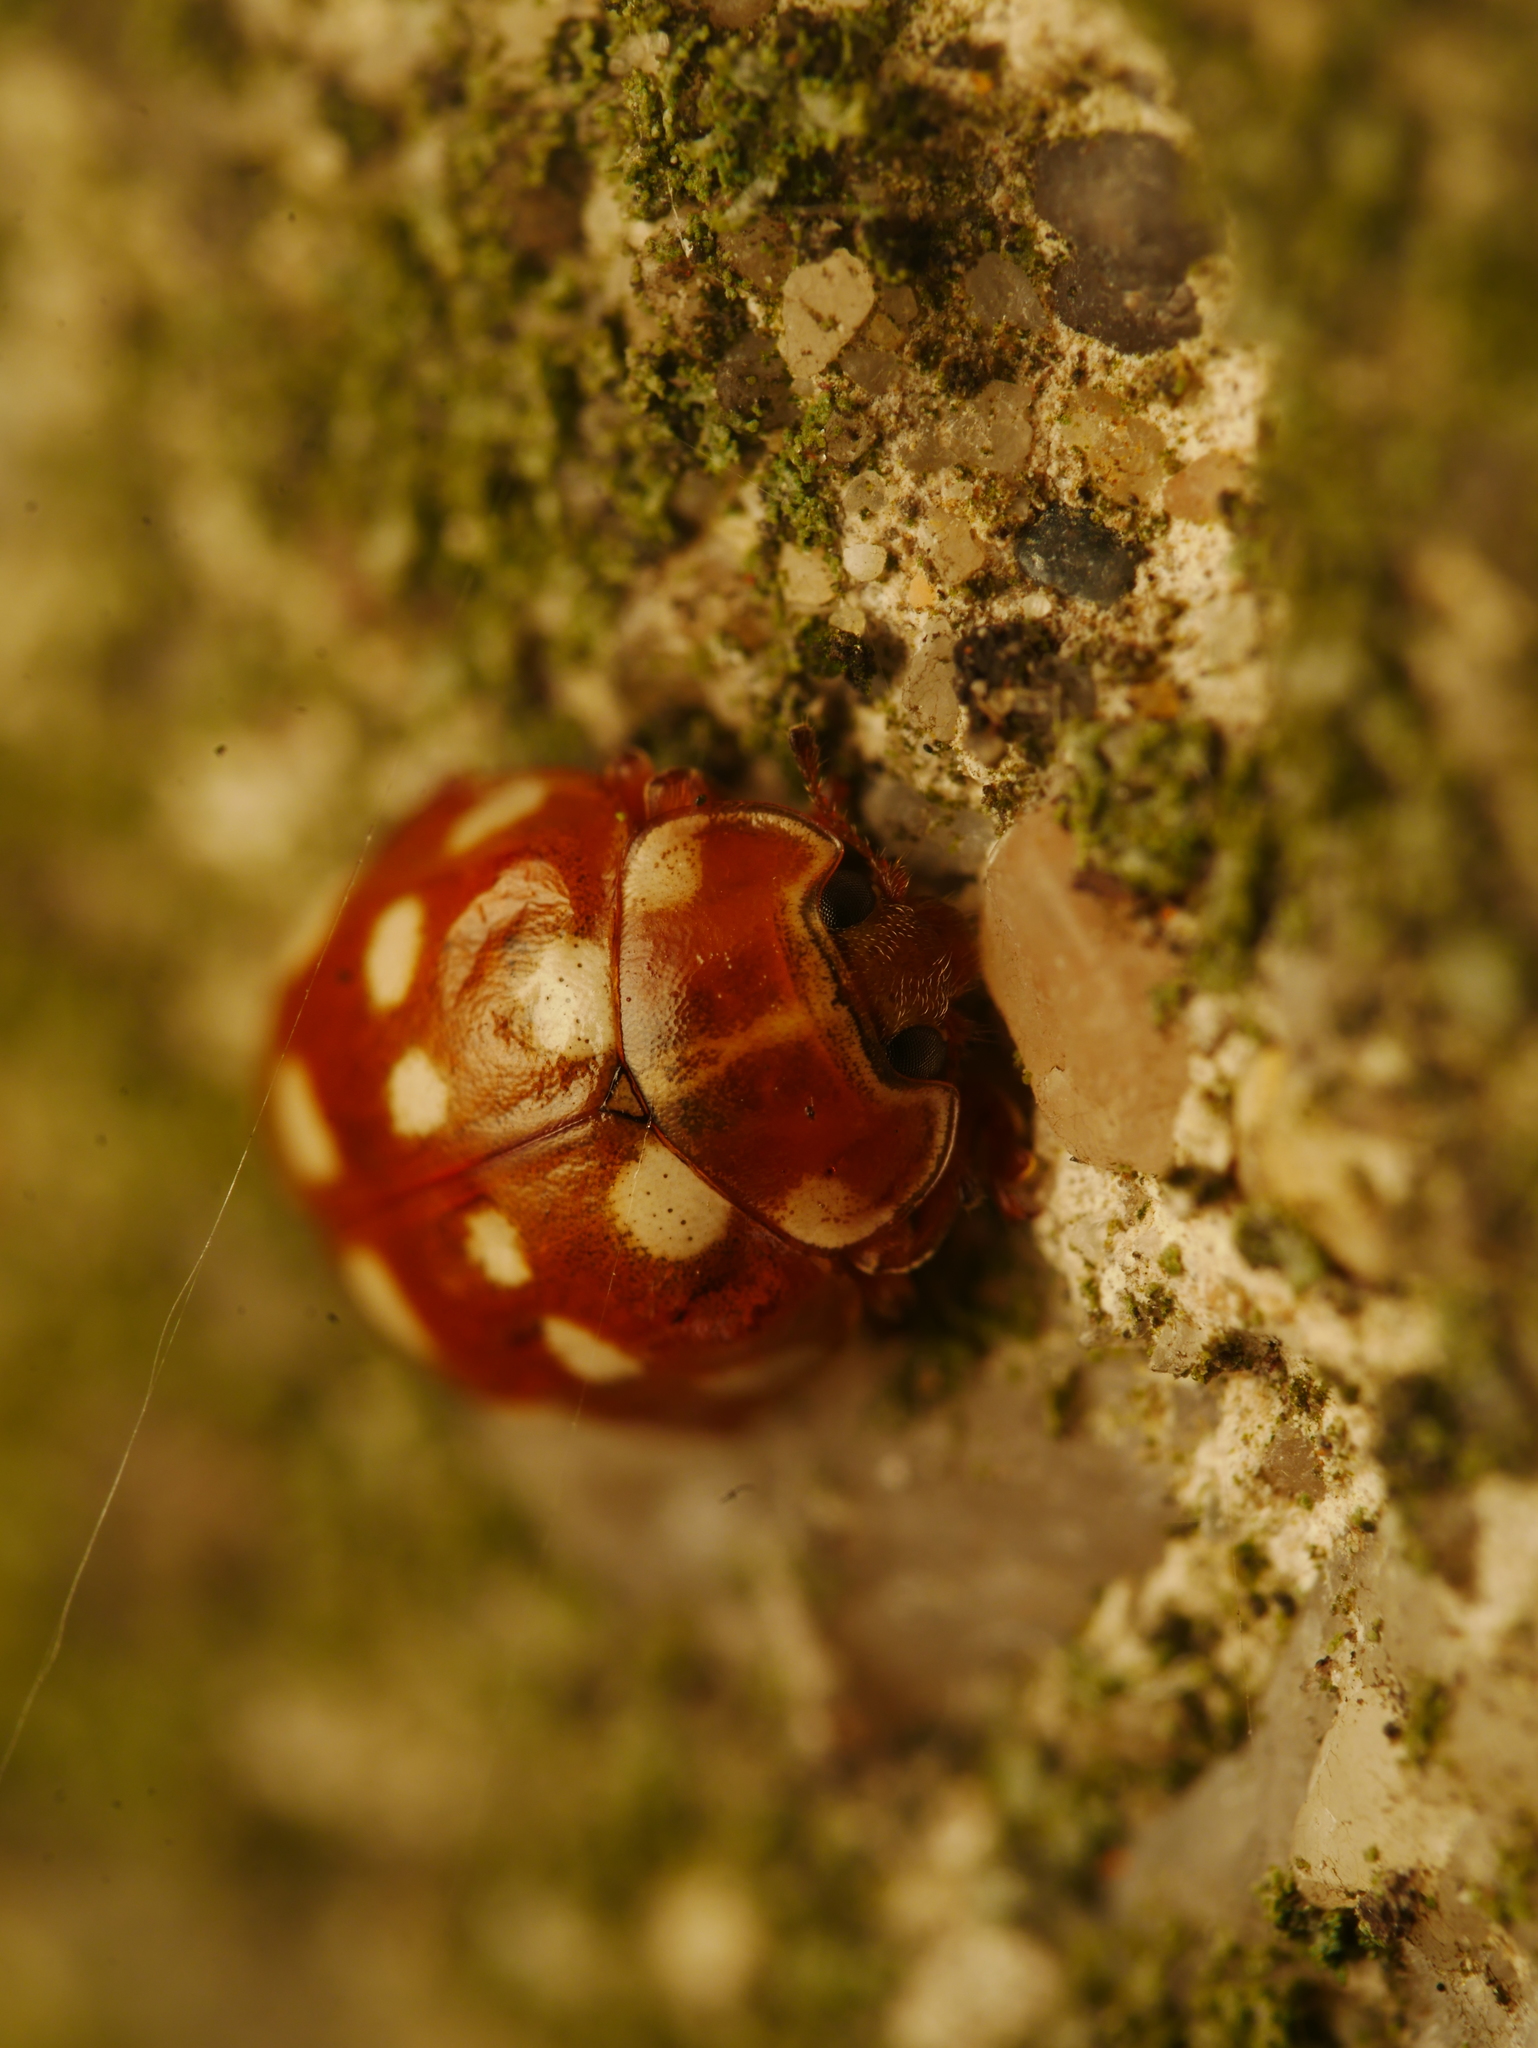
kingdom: Animalia
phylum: Arthropoda
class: Insecta
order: Coleoptera
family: Coccinellidae
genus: Calvia
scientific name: Calvia quatuordecimguttata
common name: Cream-spot ladybird
